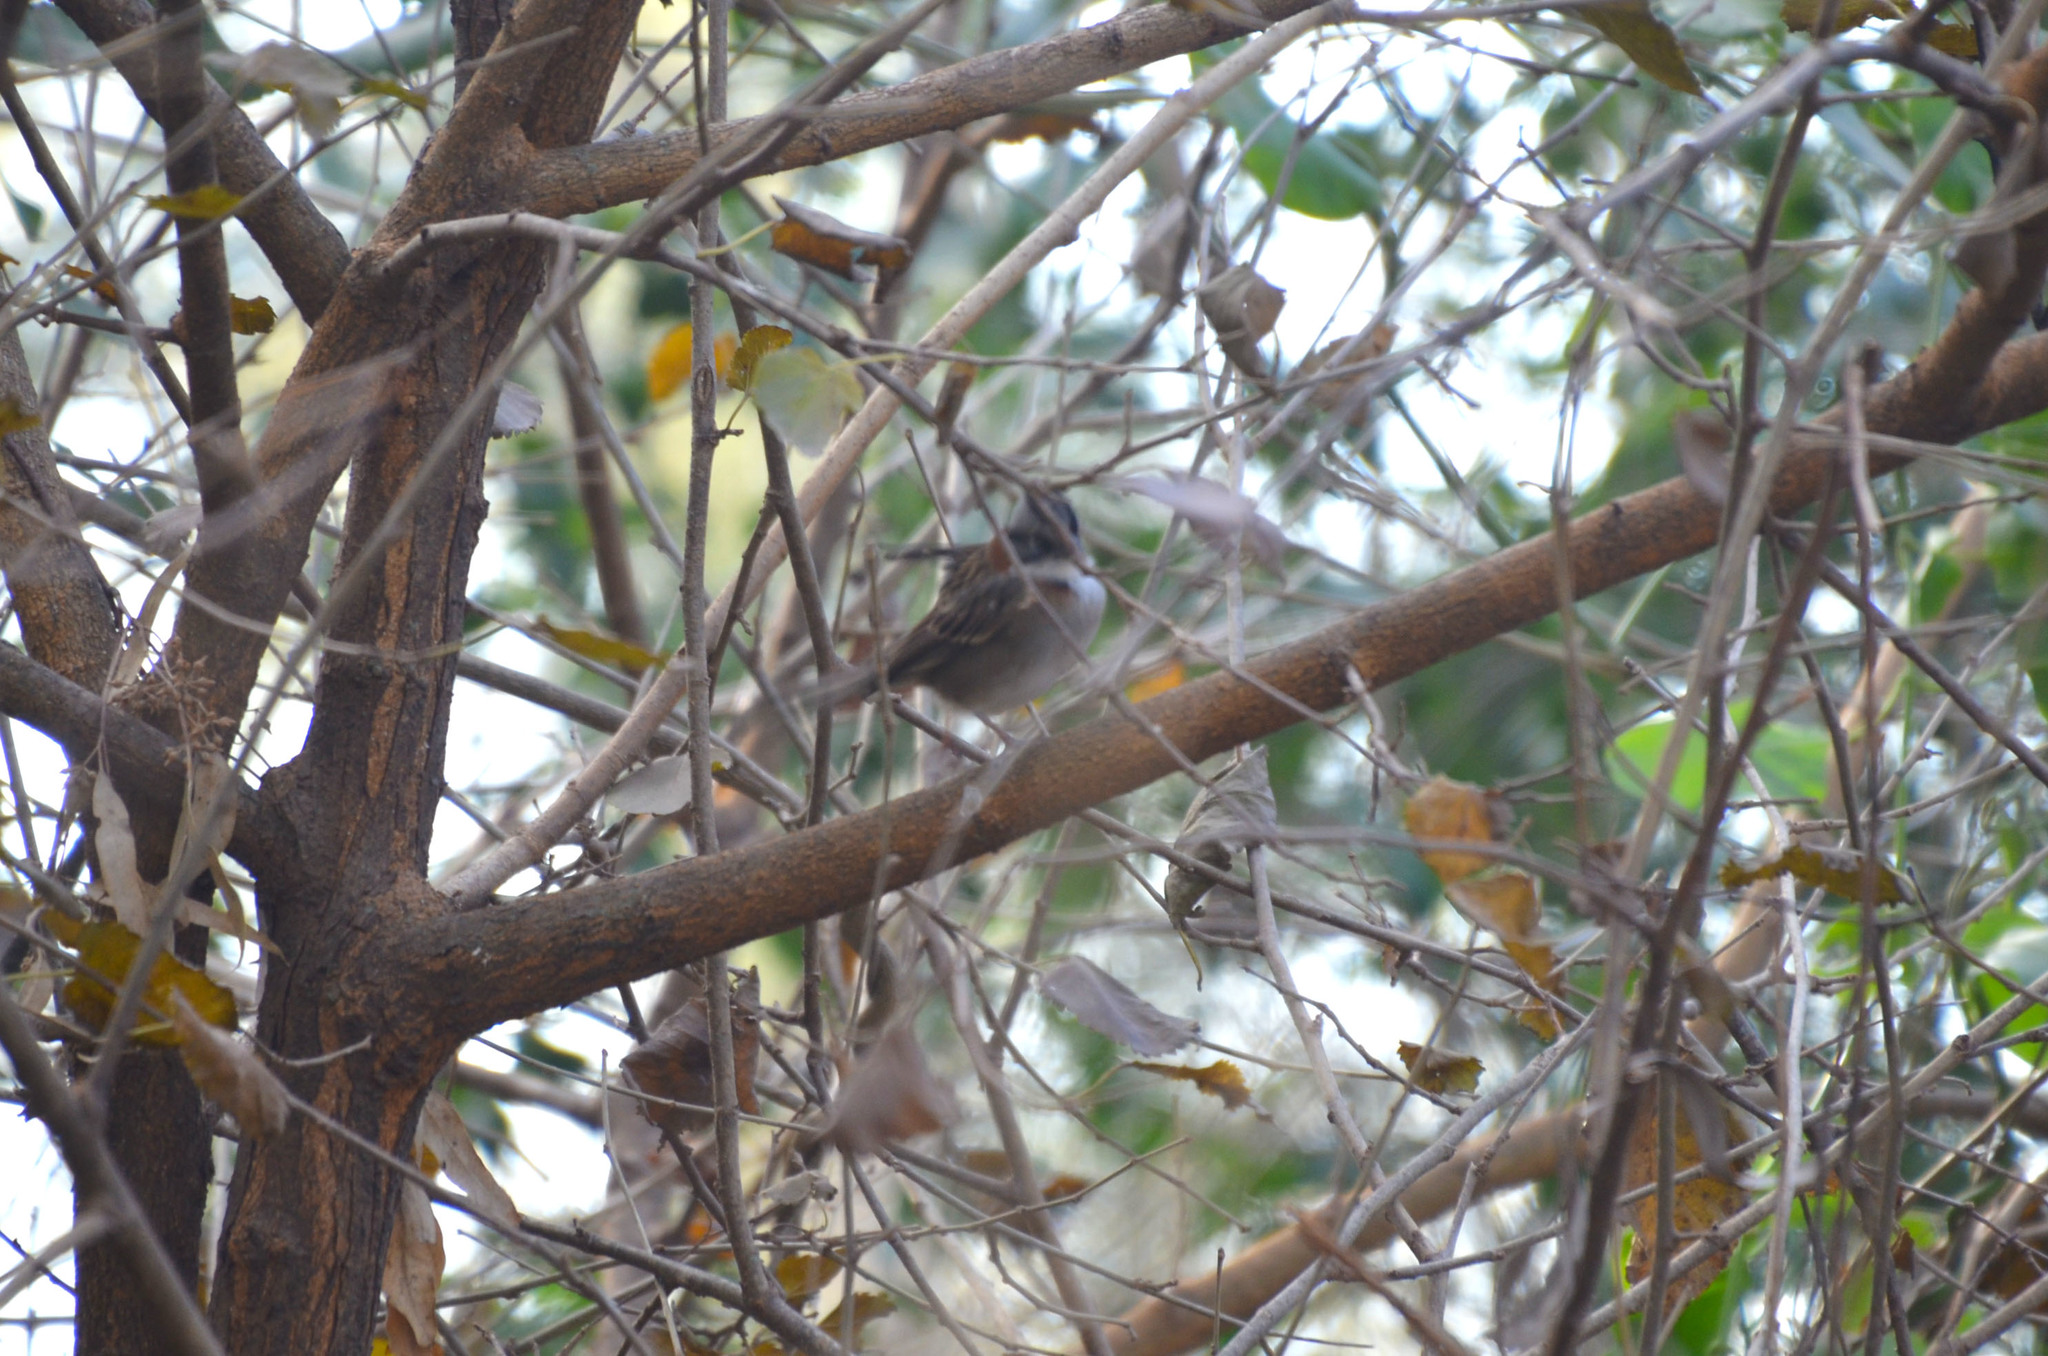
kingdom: Animalia
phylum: Chordata
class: Aves
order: Passeriformes
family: Passerellidae
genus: Zonotrichia
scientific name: Zonotrichia capensis
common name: Rufous-collared sparrow
